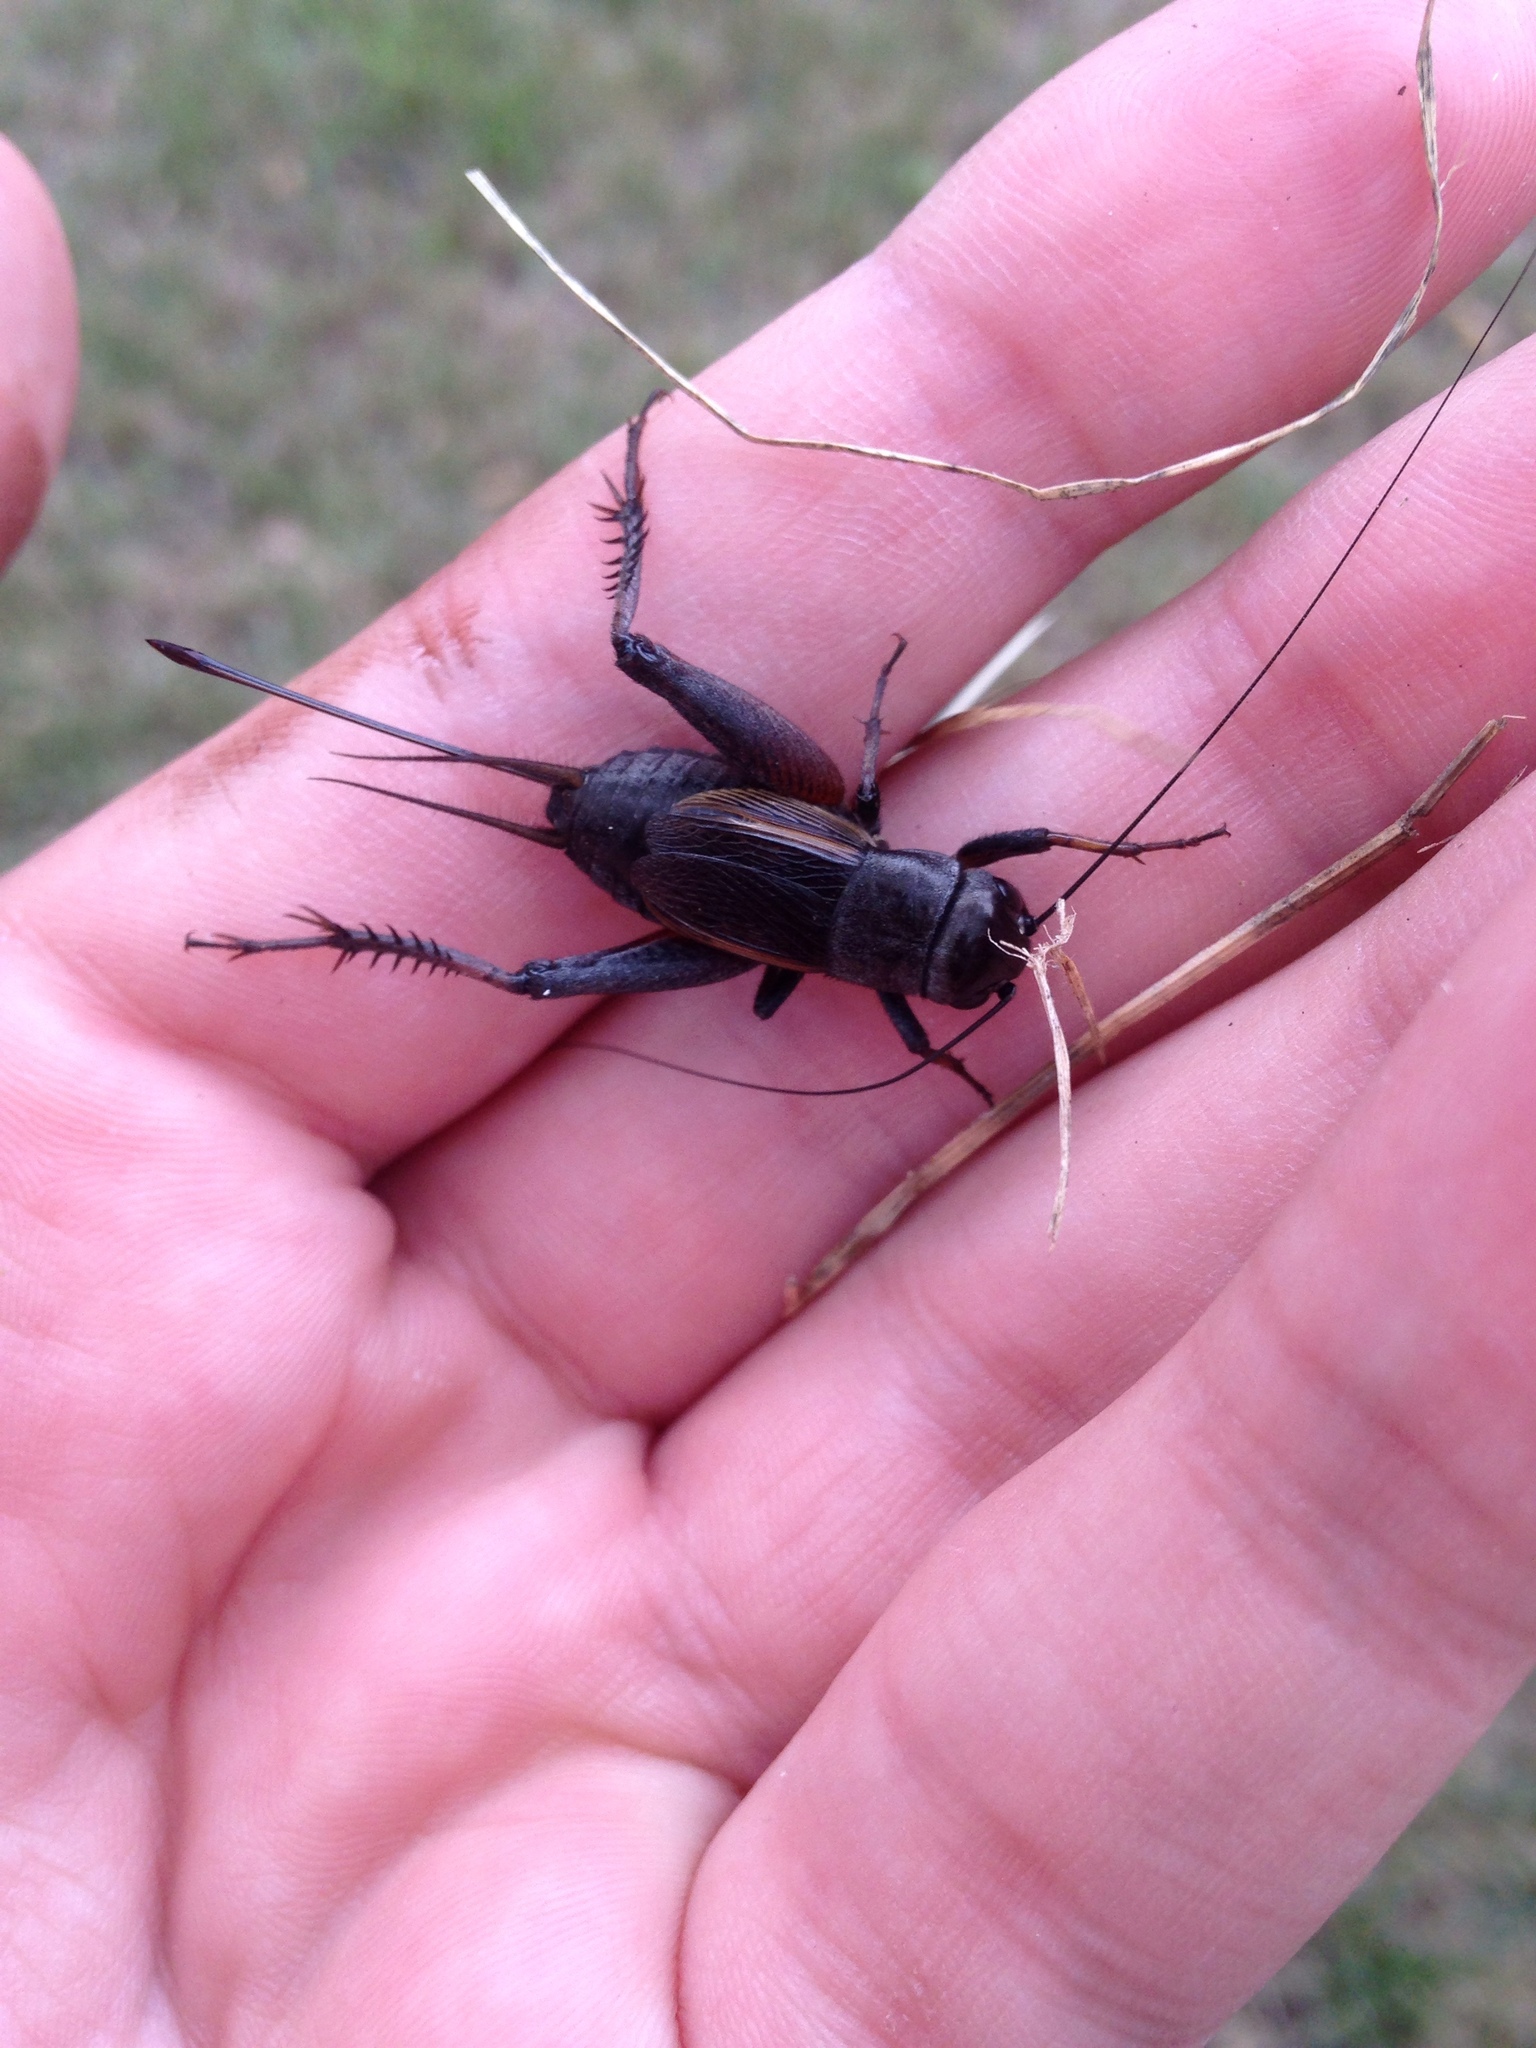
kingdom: Animalia
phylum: Arthropoda
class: Insecta
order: Orthoptera
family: Gryllidae
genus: Gryllus
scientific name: Gryllus pennsylvanicus
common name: Fall field cricket
